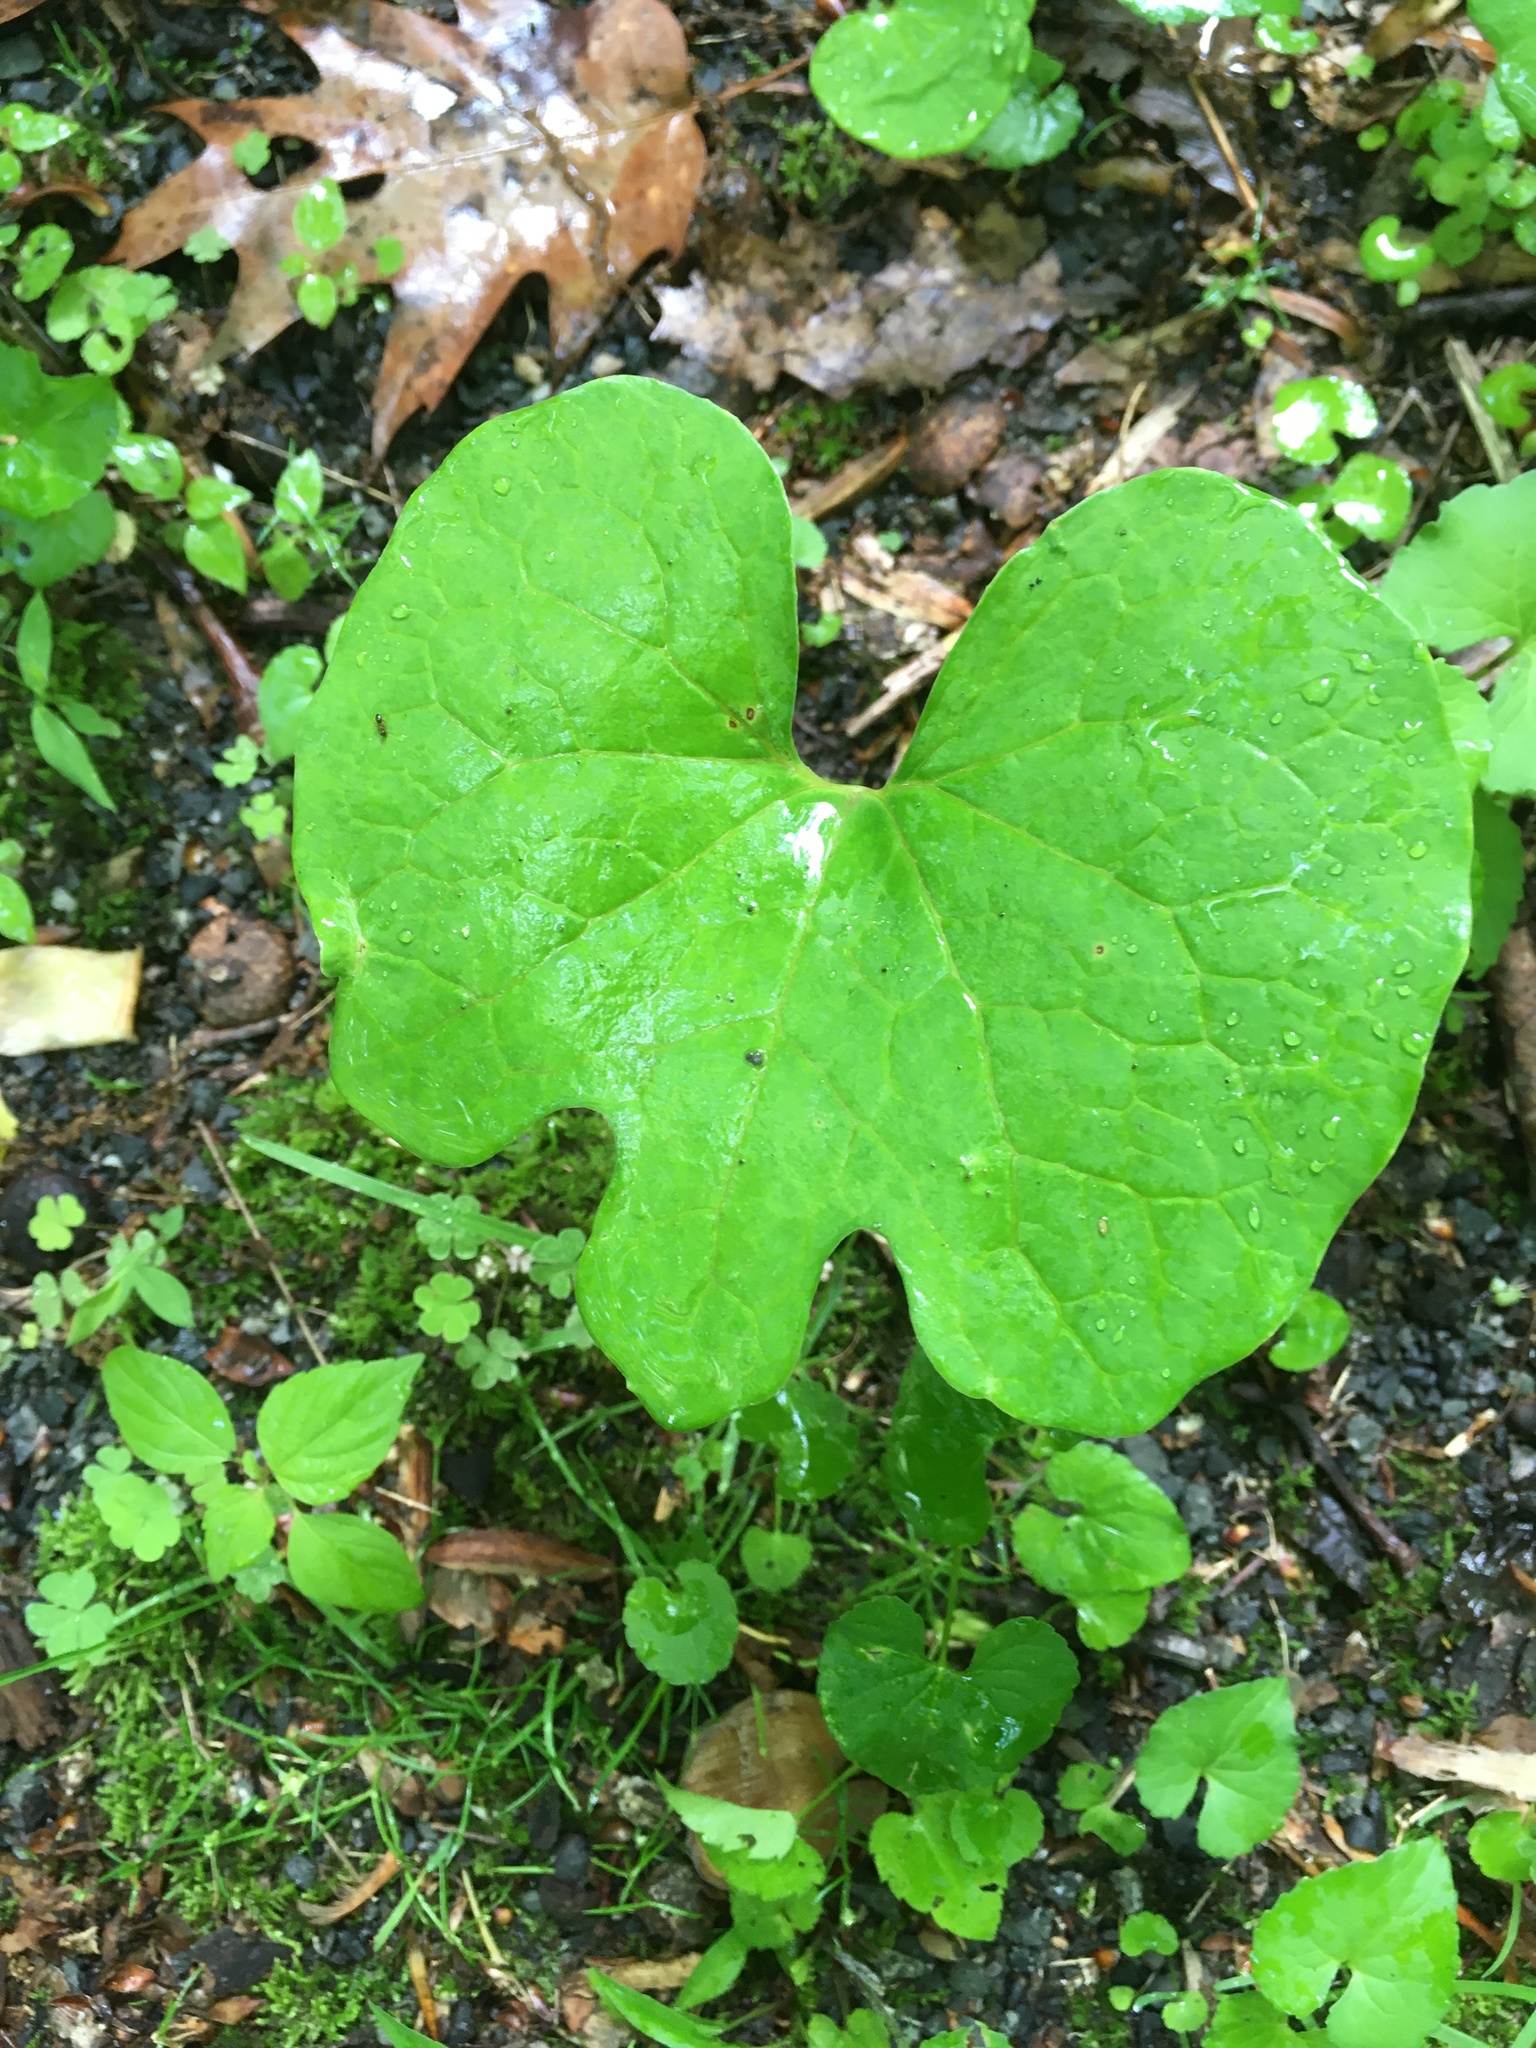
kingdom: Plantae
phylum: Tracheophyta
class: Magnoliopsida
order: Ranunculales
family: Papaveraceae
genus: Sanguinaria
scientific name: Sanguinaria canadensis
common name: Bloodroot
